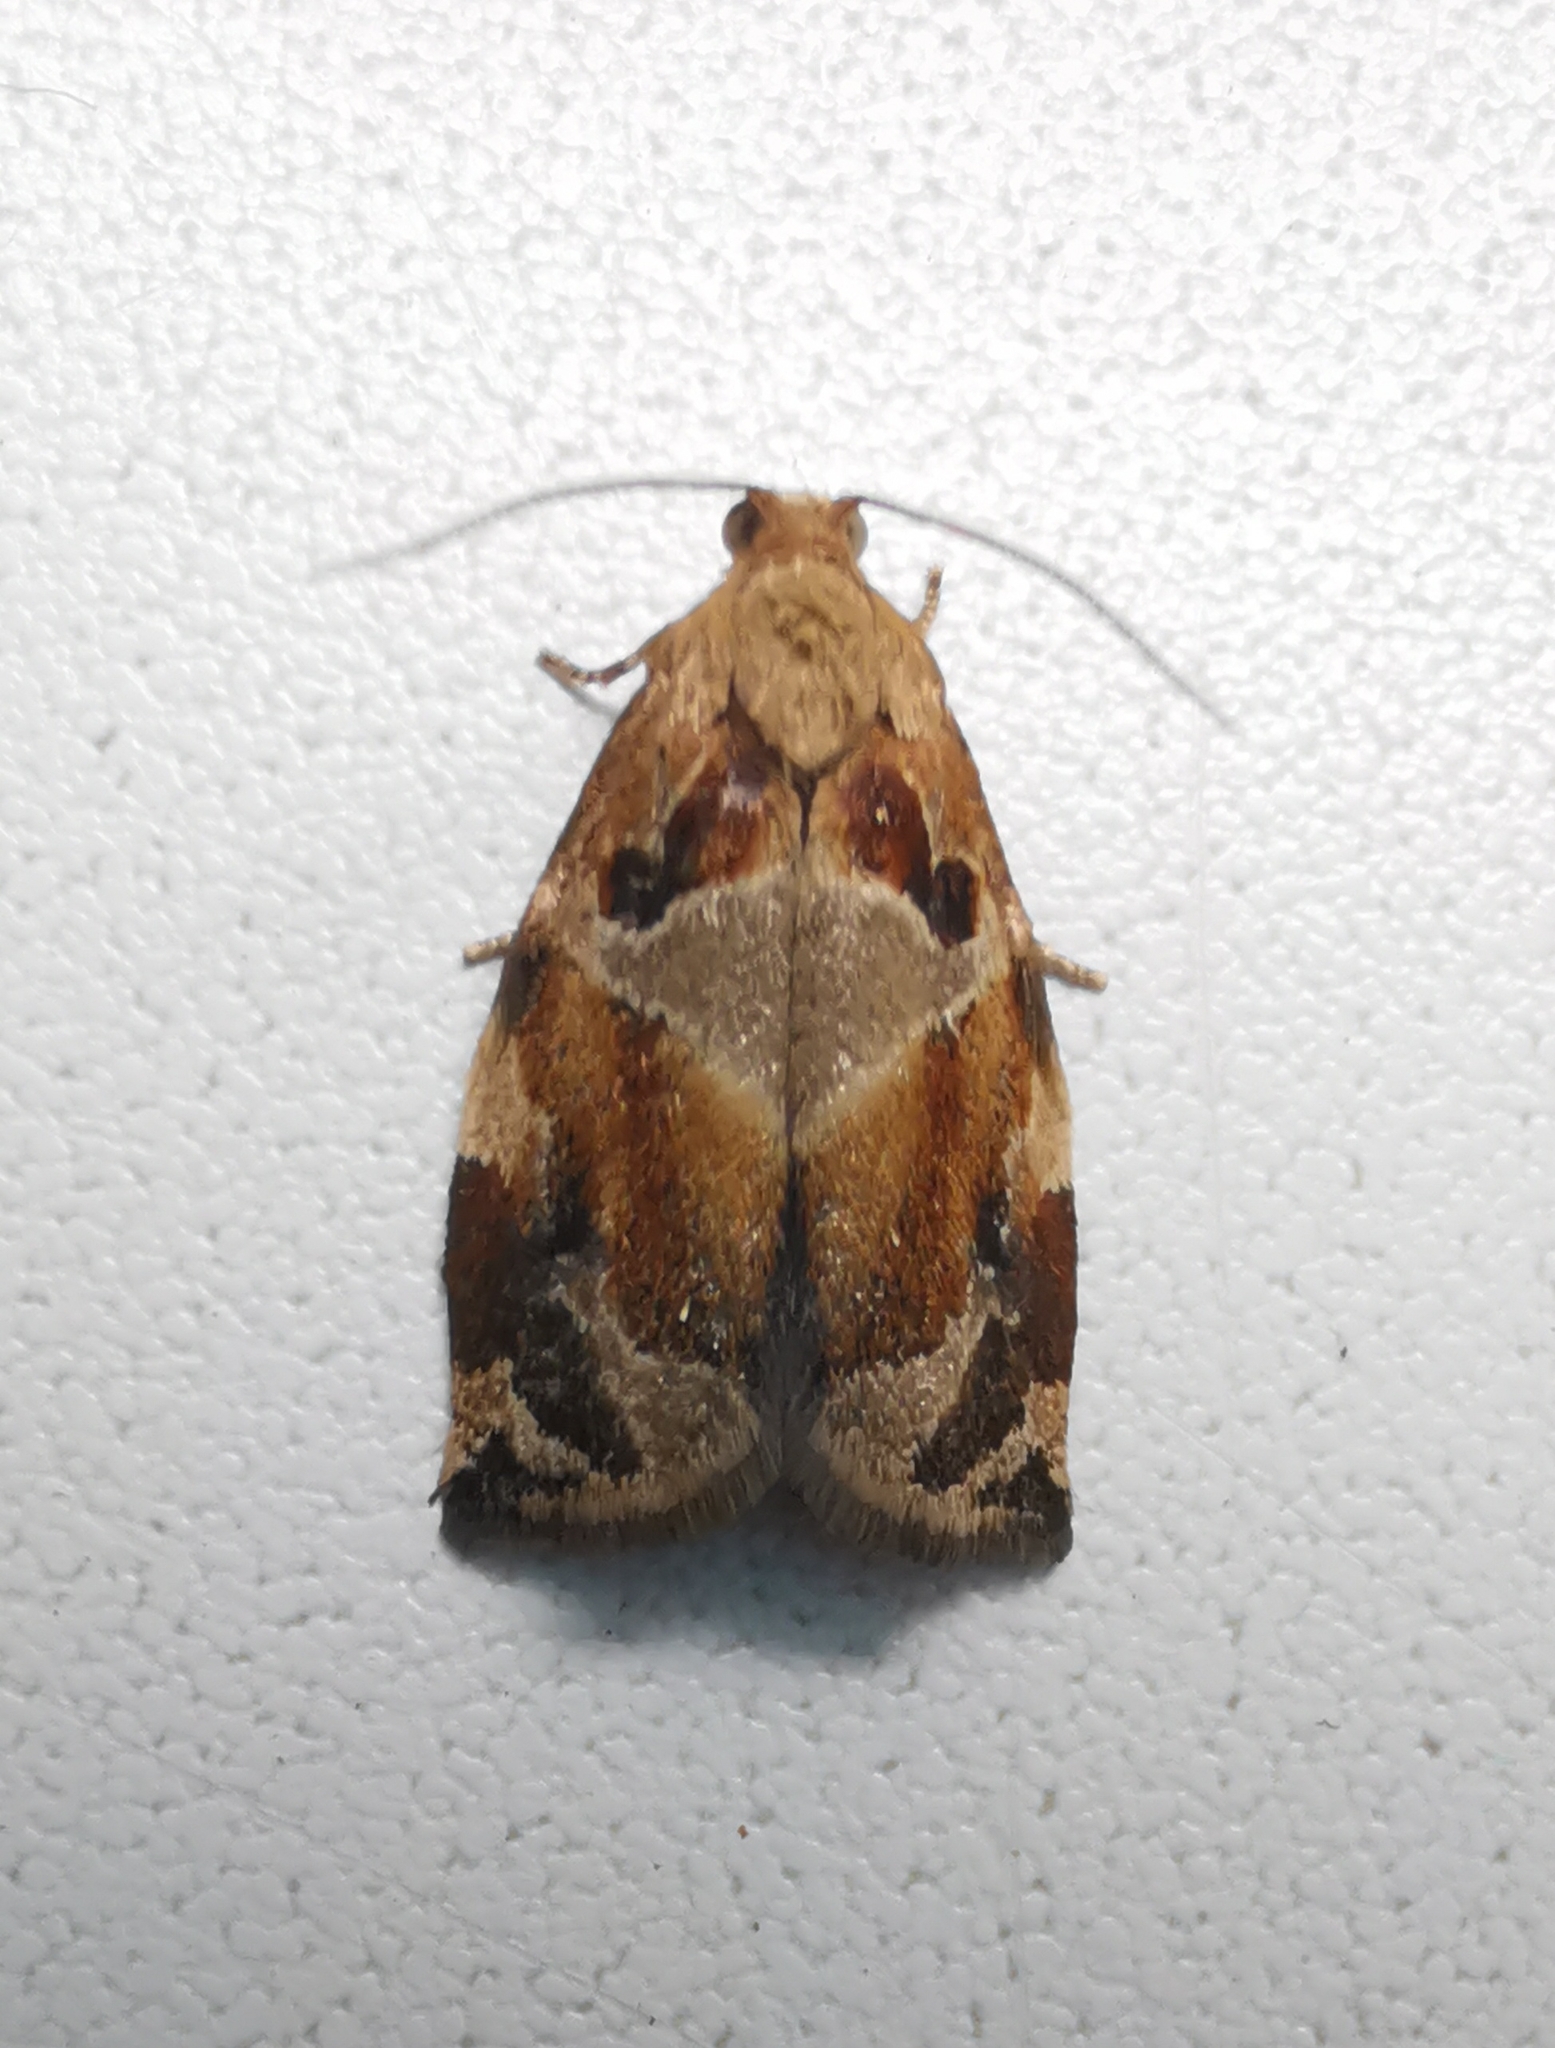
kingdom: Animalia
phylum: Arthropoda
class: Insecta
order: Lepidoptera
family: Tortricidae
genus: Archips
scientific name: Archips xylosteana
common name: Variegated golden tortrix
